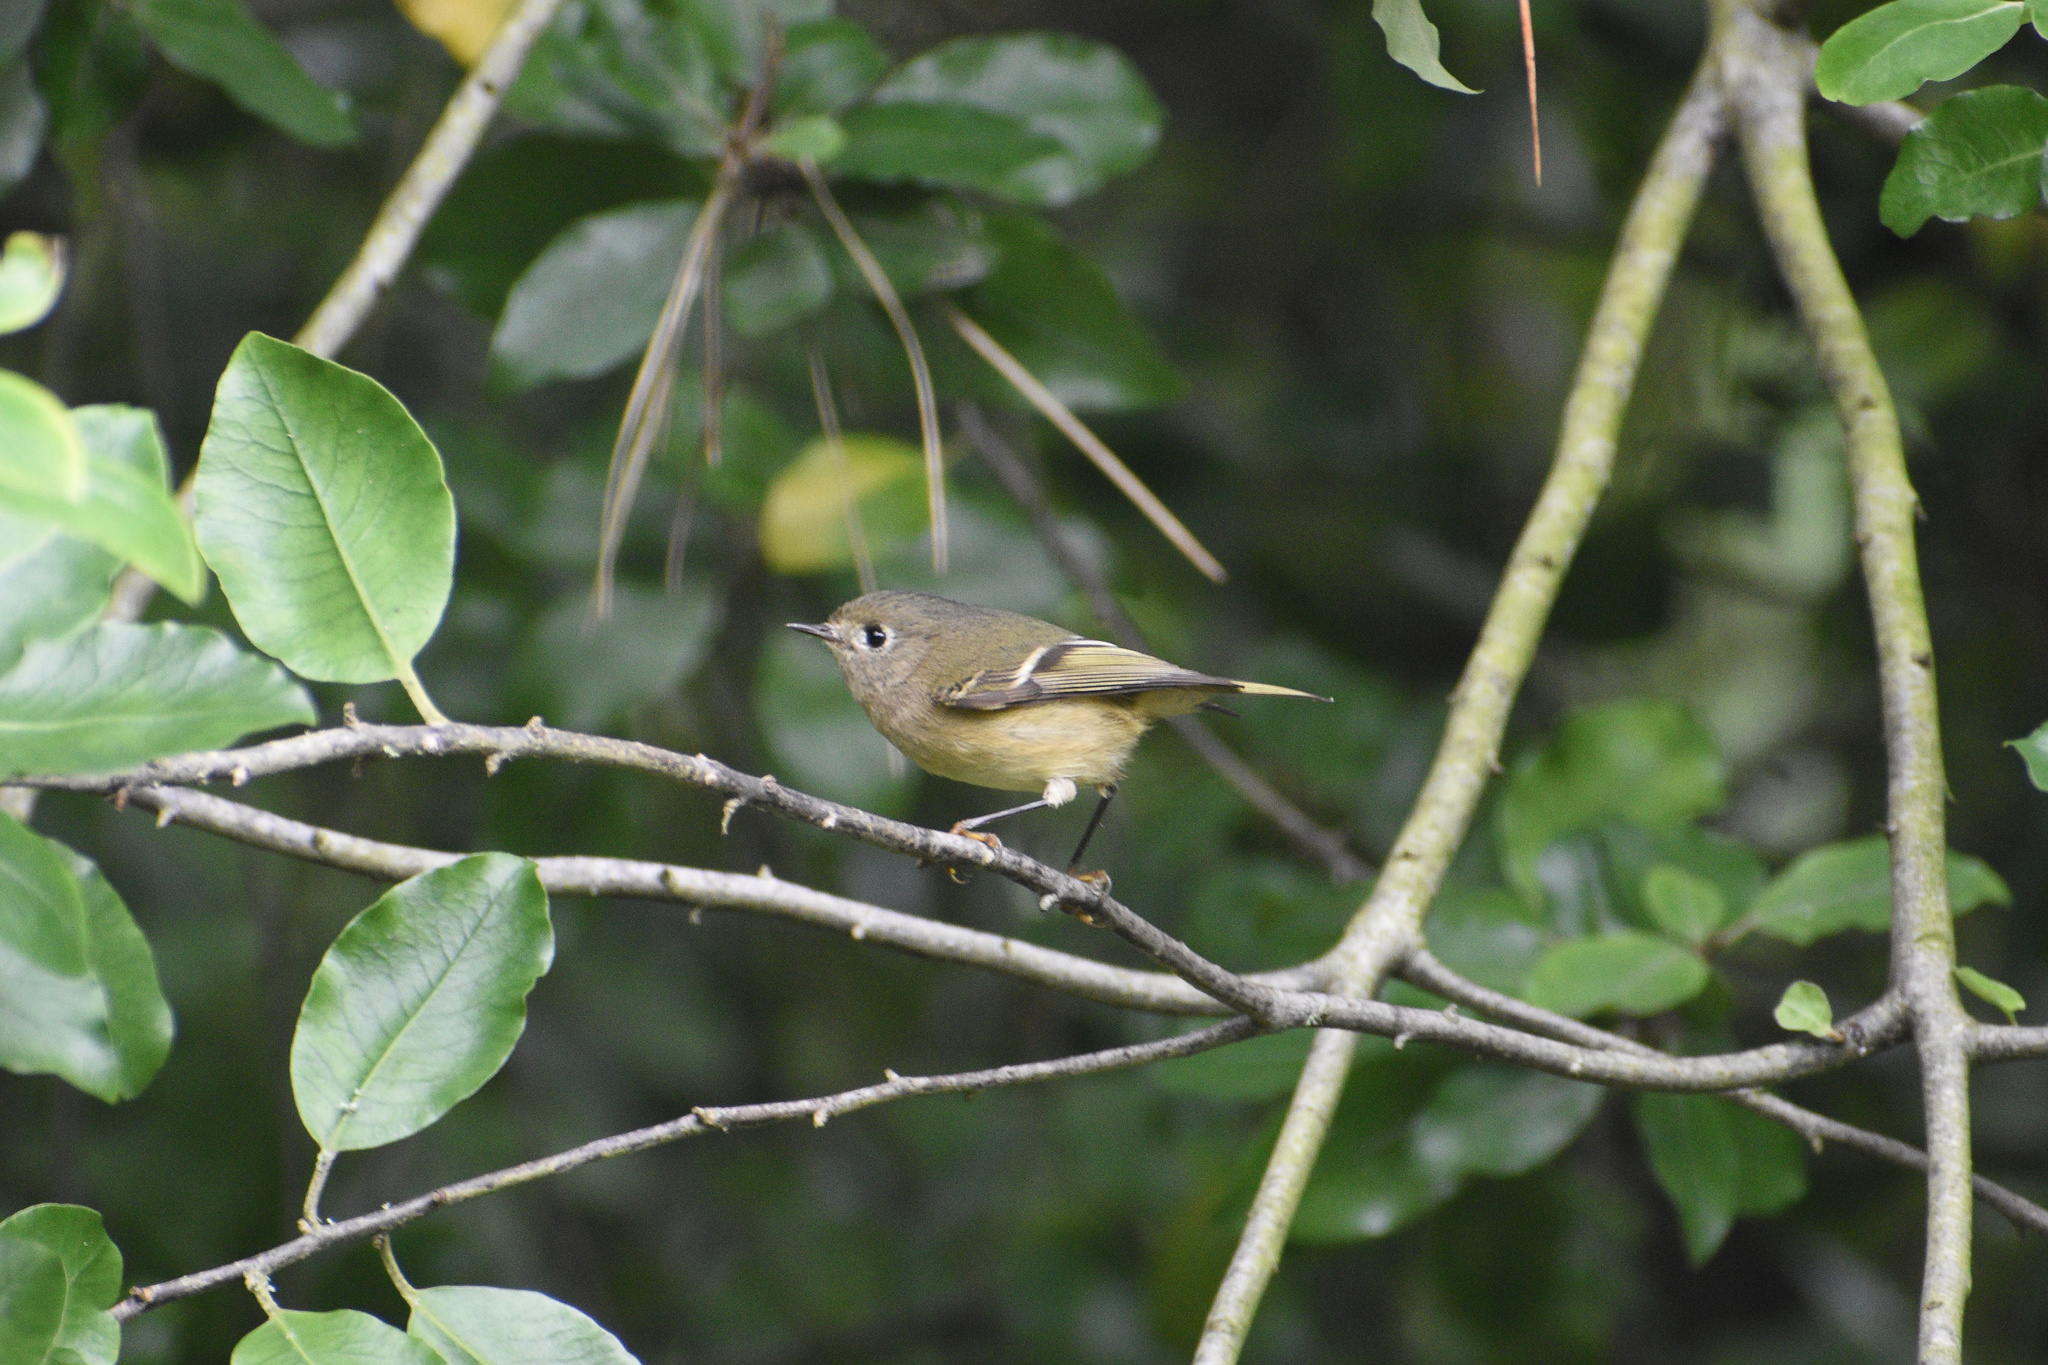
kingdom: Animalia
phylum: Chordata
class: Aves
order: Passeriformes
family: Regulidae
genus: Regulus
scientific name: Regulus calendula
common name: Ruby-crowned kinglet
